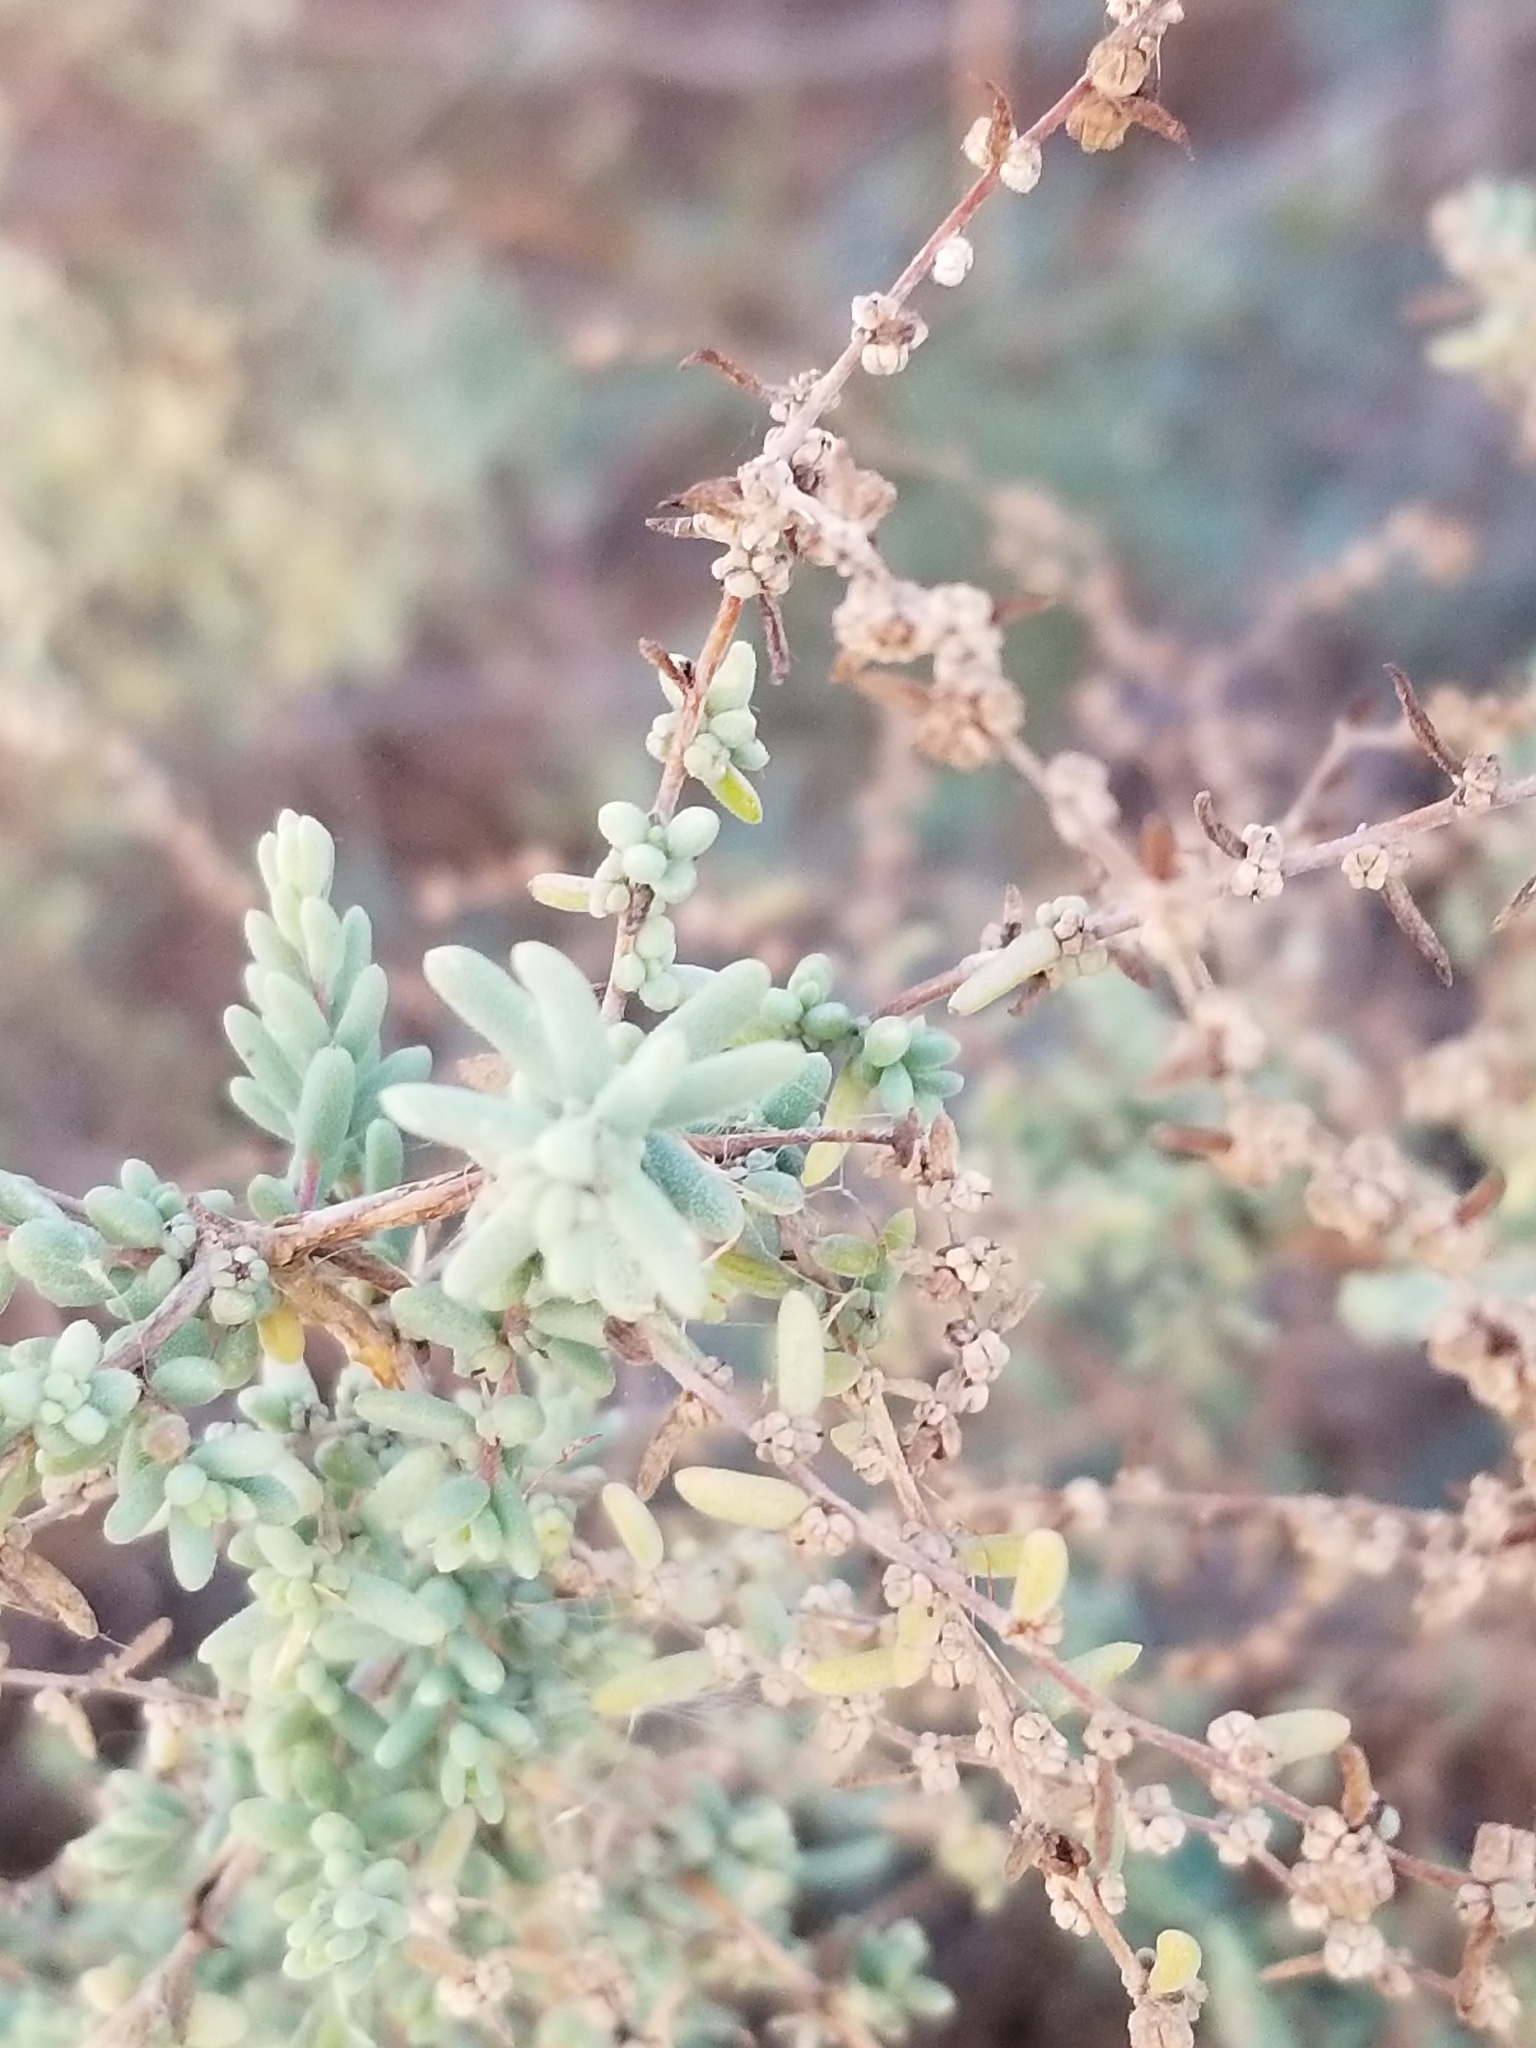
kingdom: Plantae
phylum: Tracheophyta
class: Magnoliopsida
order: Caryophyllales
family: Amaranthaceae
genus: Suaeda
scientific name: Suaeda nigra
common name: Bush seepweed
